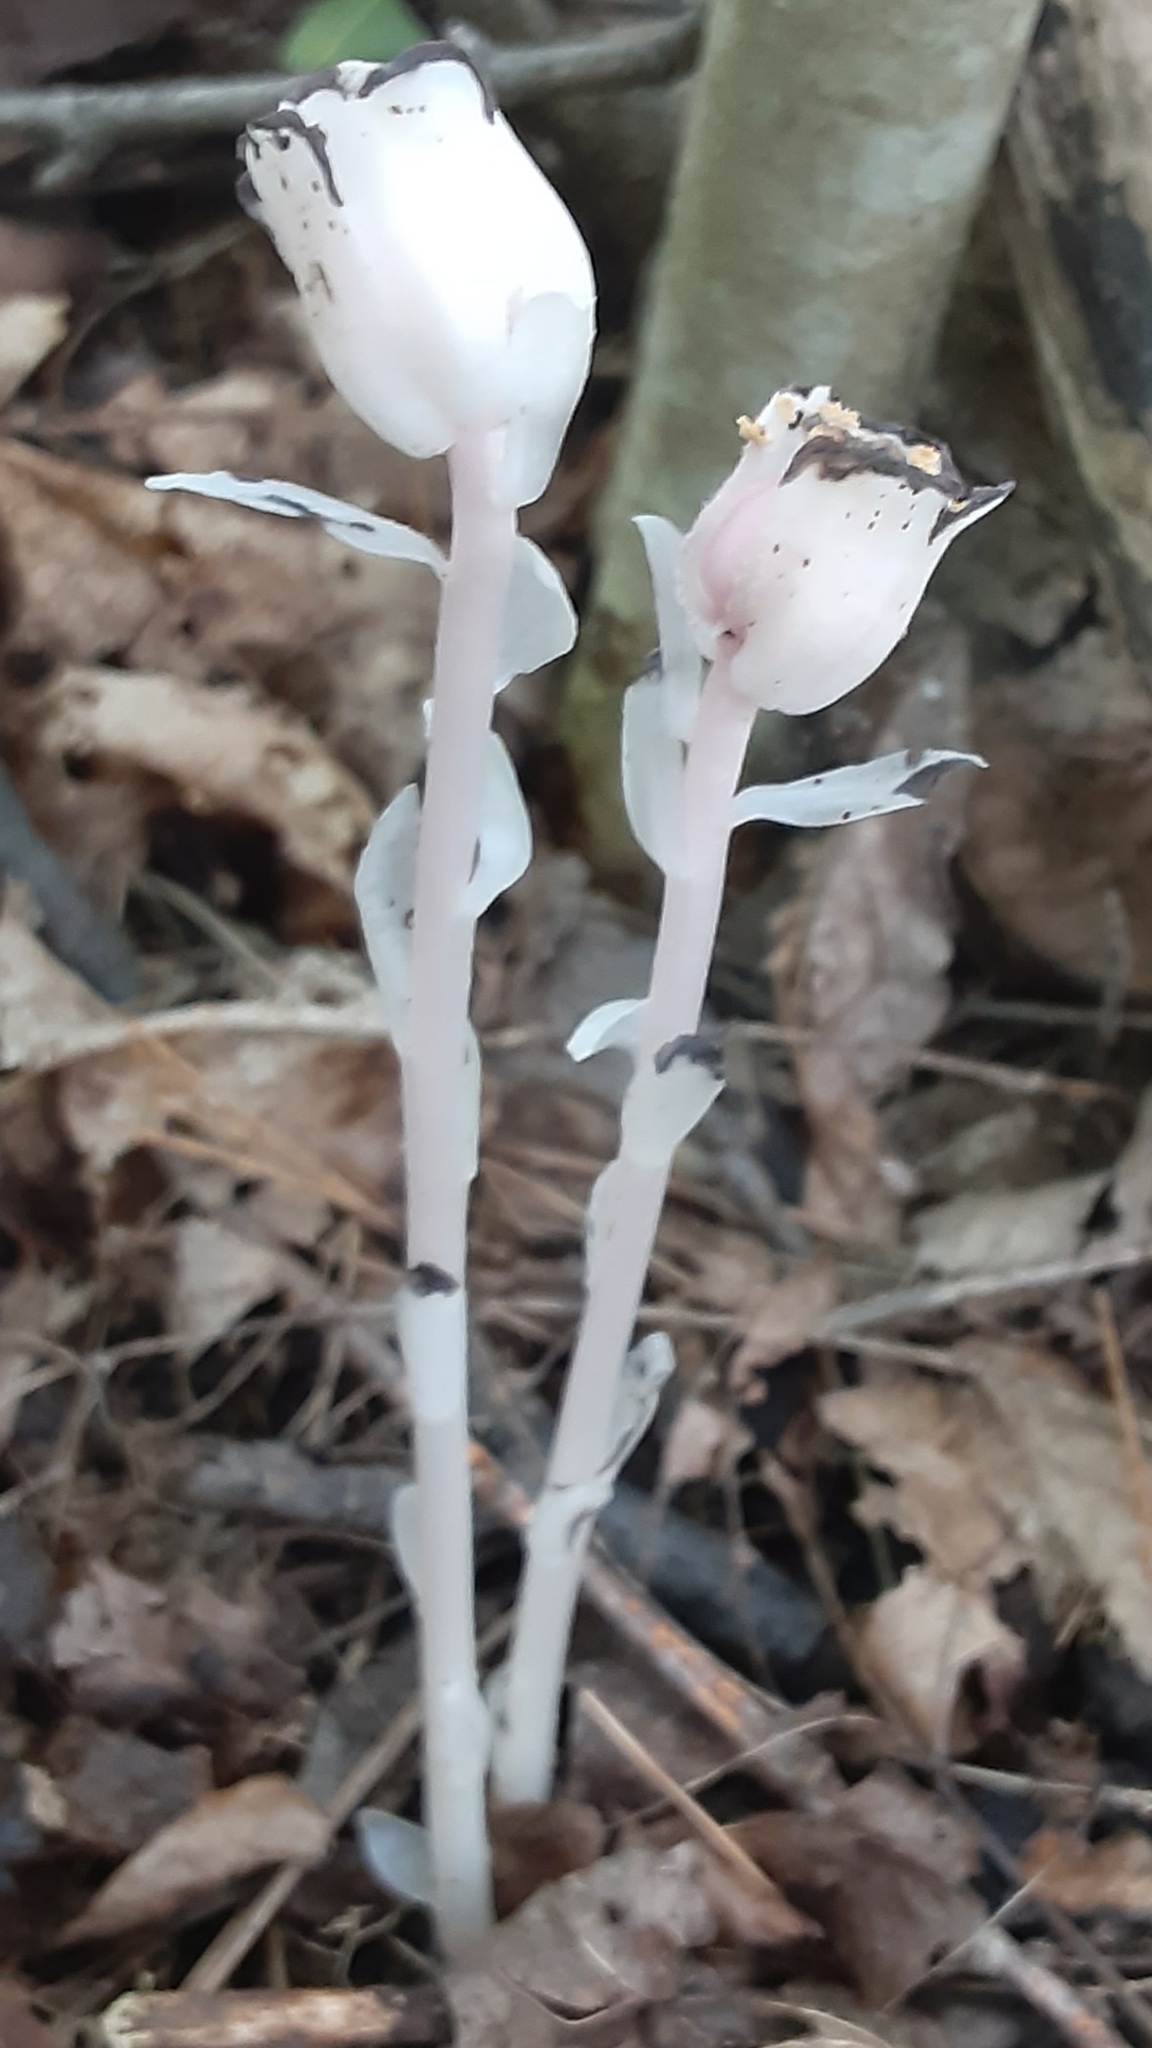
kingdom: Plantae
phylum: Tracheophyta
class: Magnoliopsida
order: Ericales
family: Ericaceae
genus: Monotropa
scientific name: Monotropa uniflora
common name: Convulsion root
